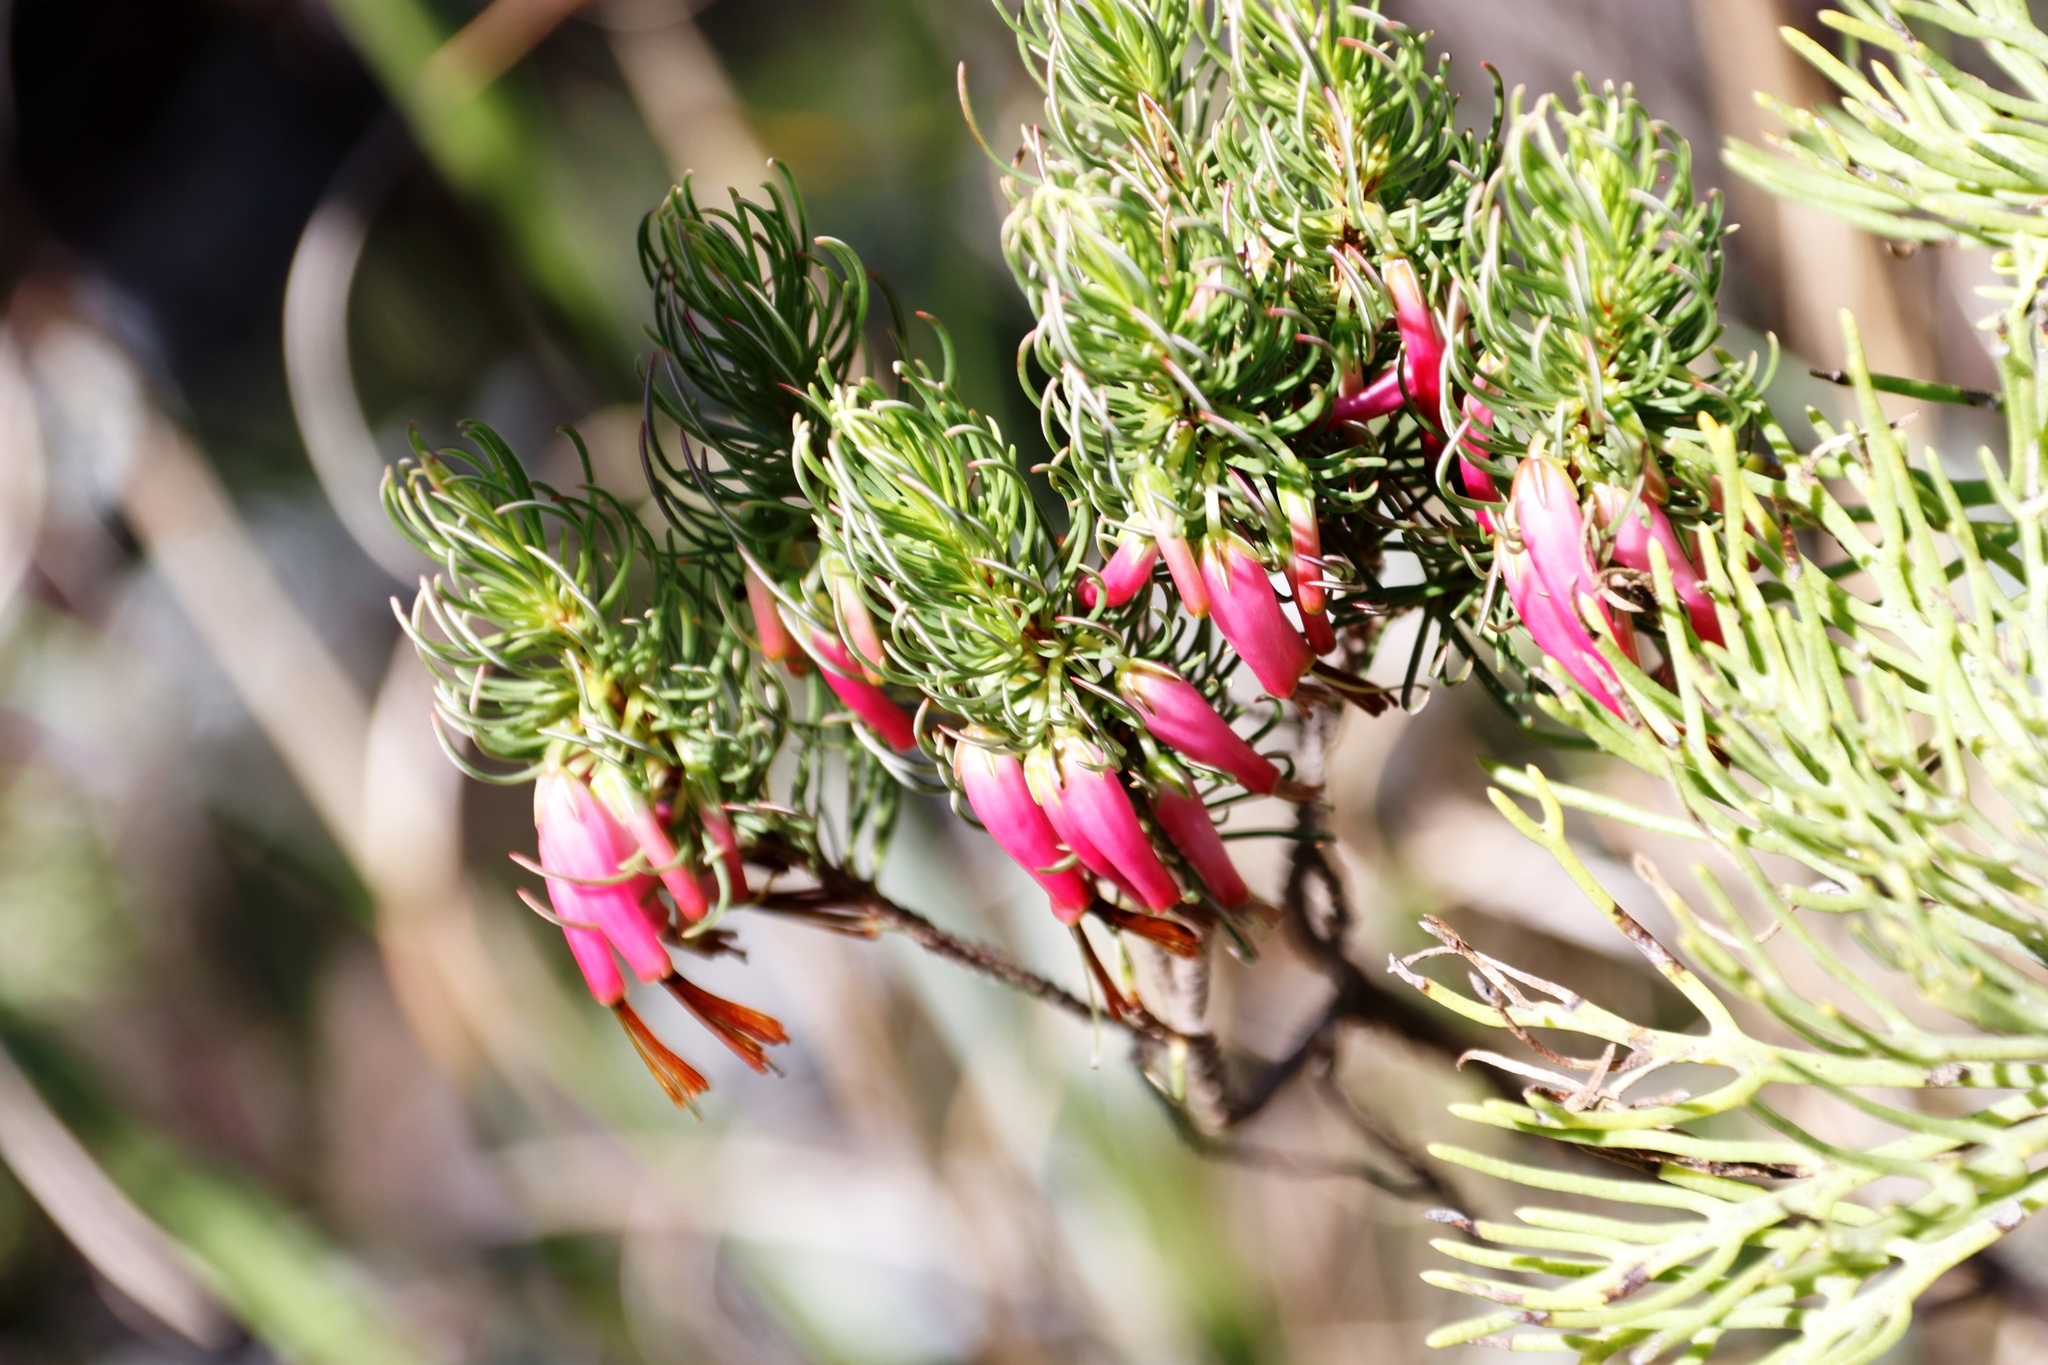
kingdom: Plantae
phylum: Tracheophyta
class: Magnoliopsida
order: Ericales
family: Ericaceae
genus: Erica
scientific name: Erica plukenetii
